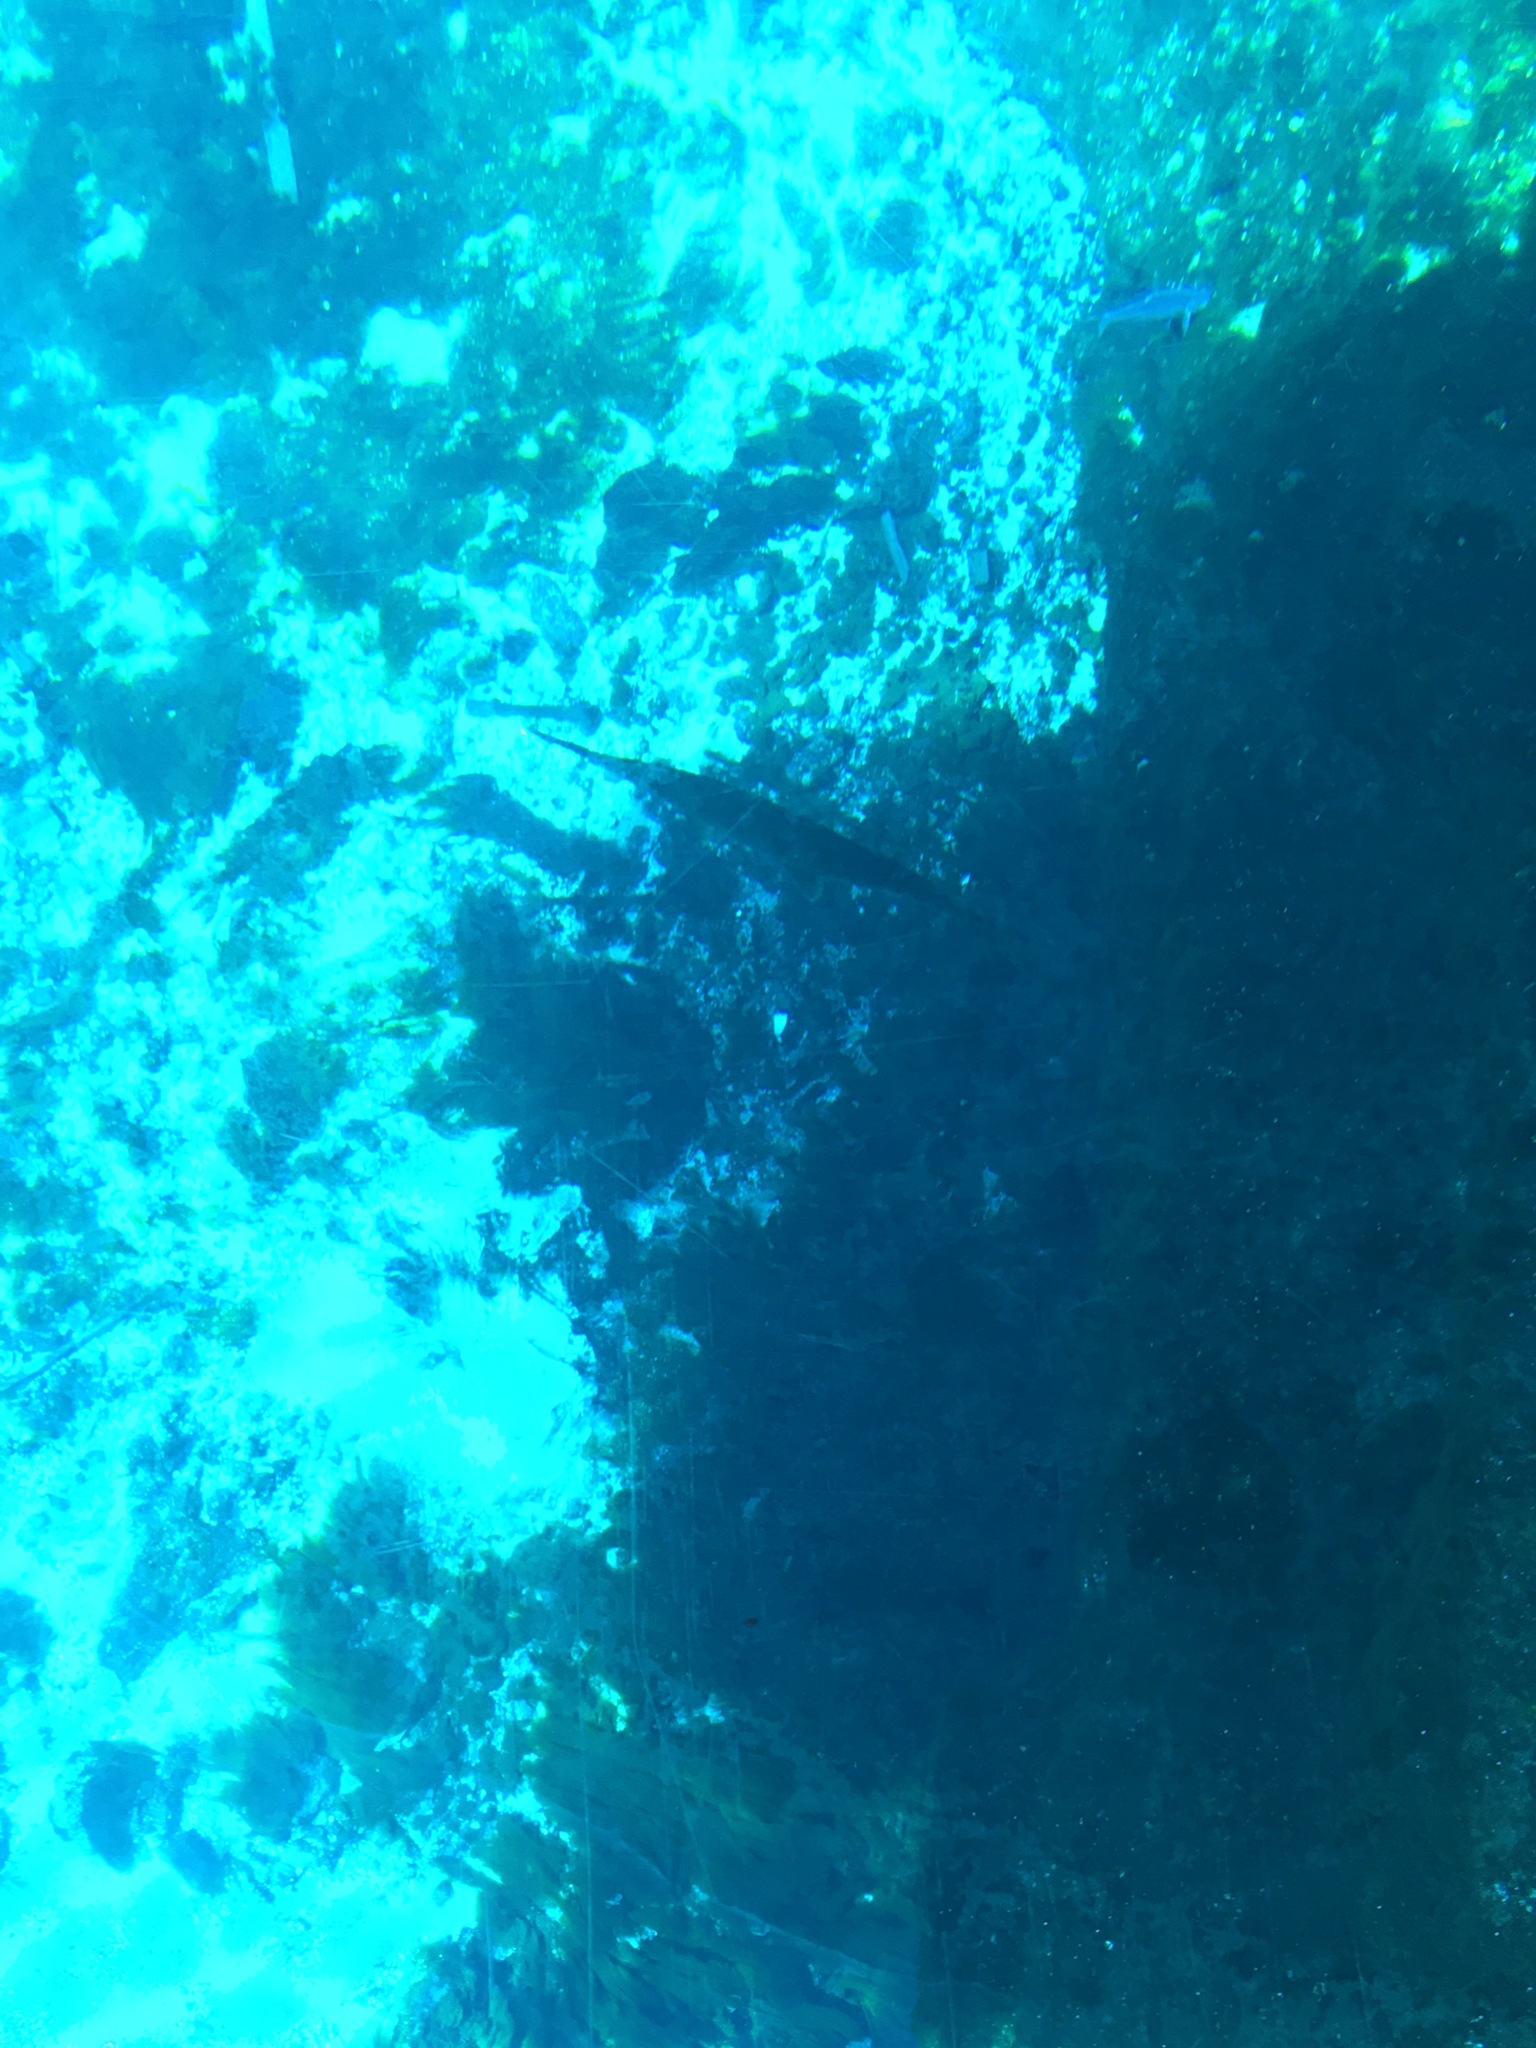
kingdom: Animalia
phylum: Chordata
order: Lepisosteiformes
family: Lepisosteidae
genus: Lepisosteus
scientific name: Lepisosteus osseus
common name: Longnose gar
